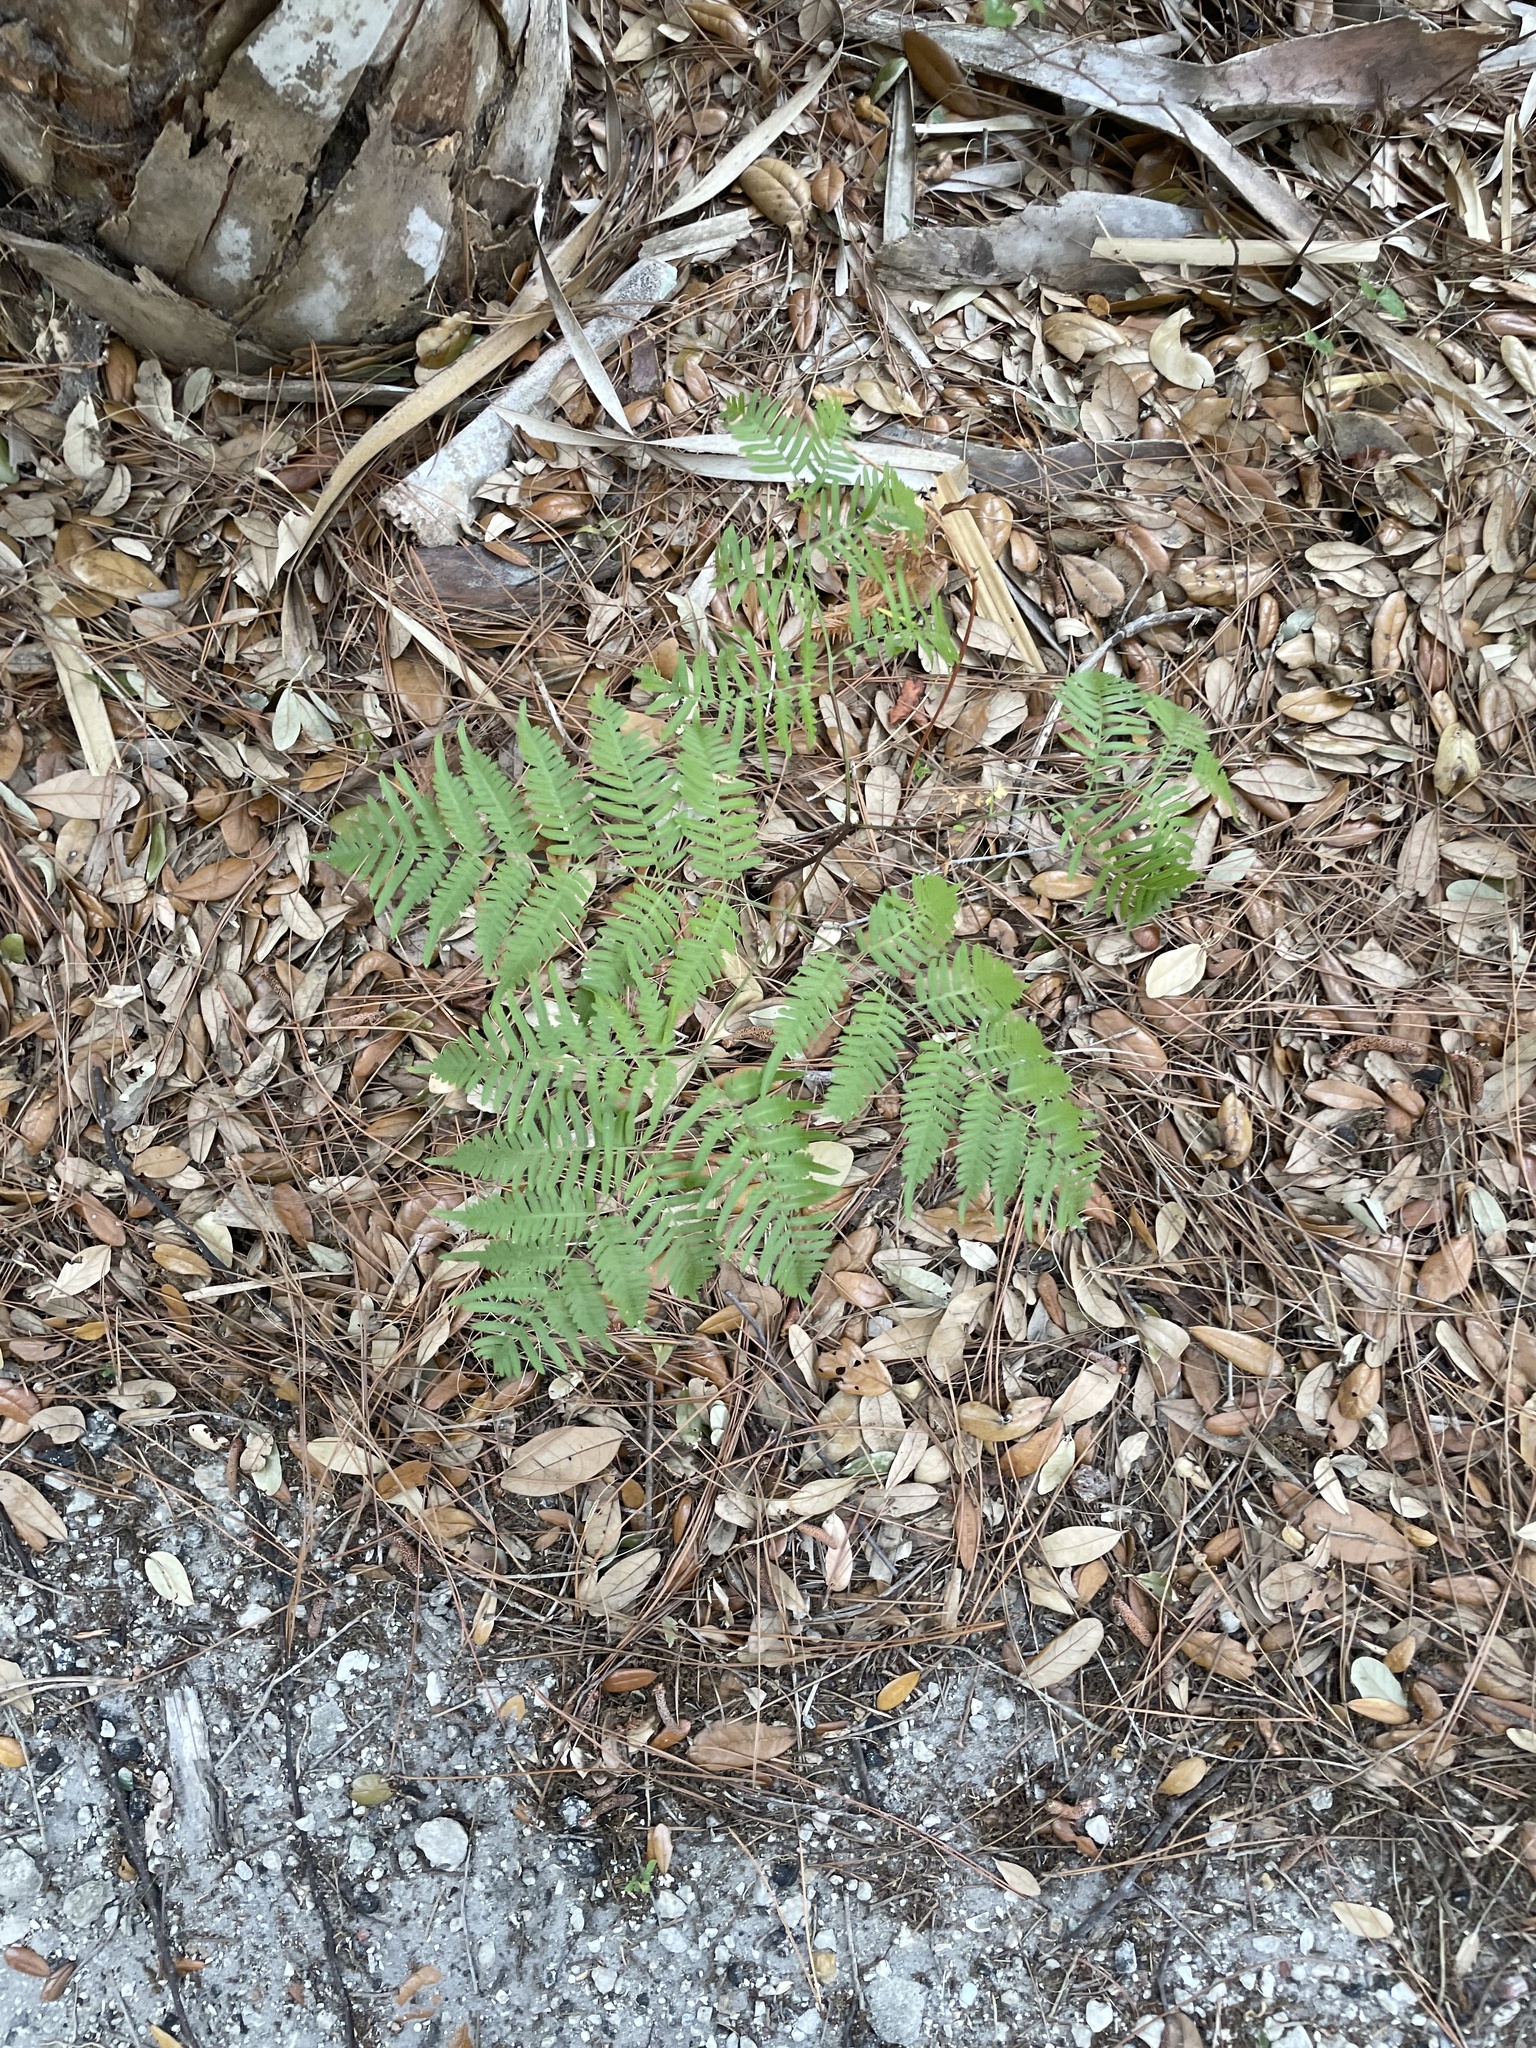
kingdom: Plantae
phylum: Tracheophyta
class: Polypodiopsida
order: Polypodiales
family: Dennstaedtiaceae
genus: Pteridium
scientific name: Pteridium
